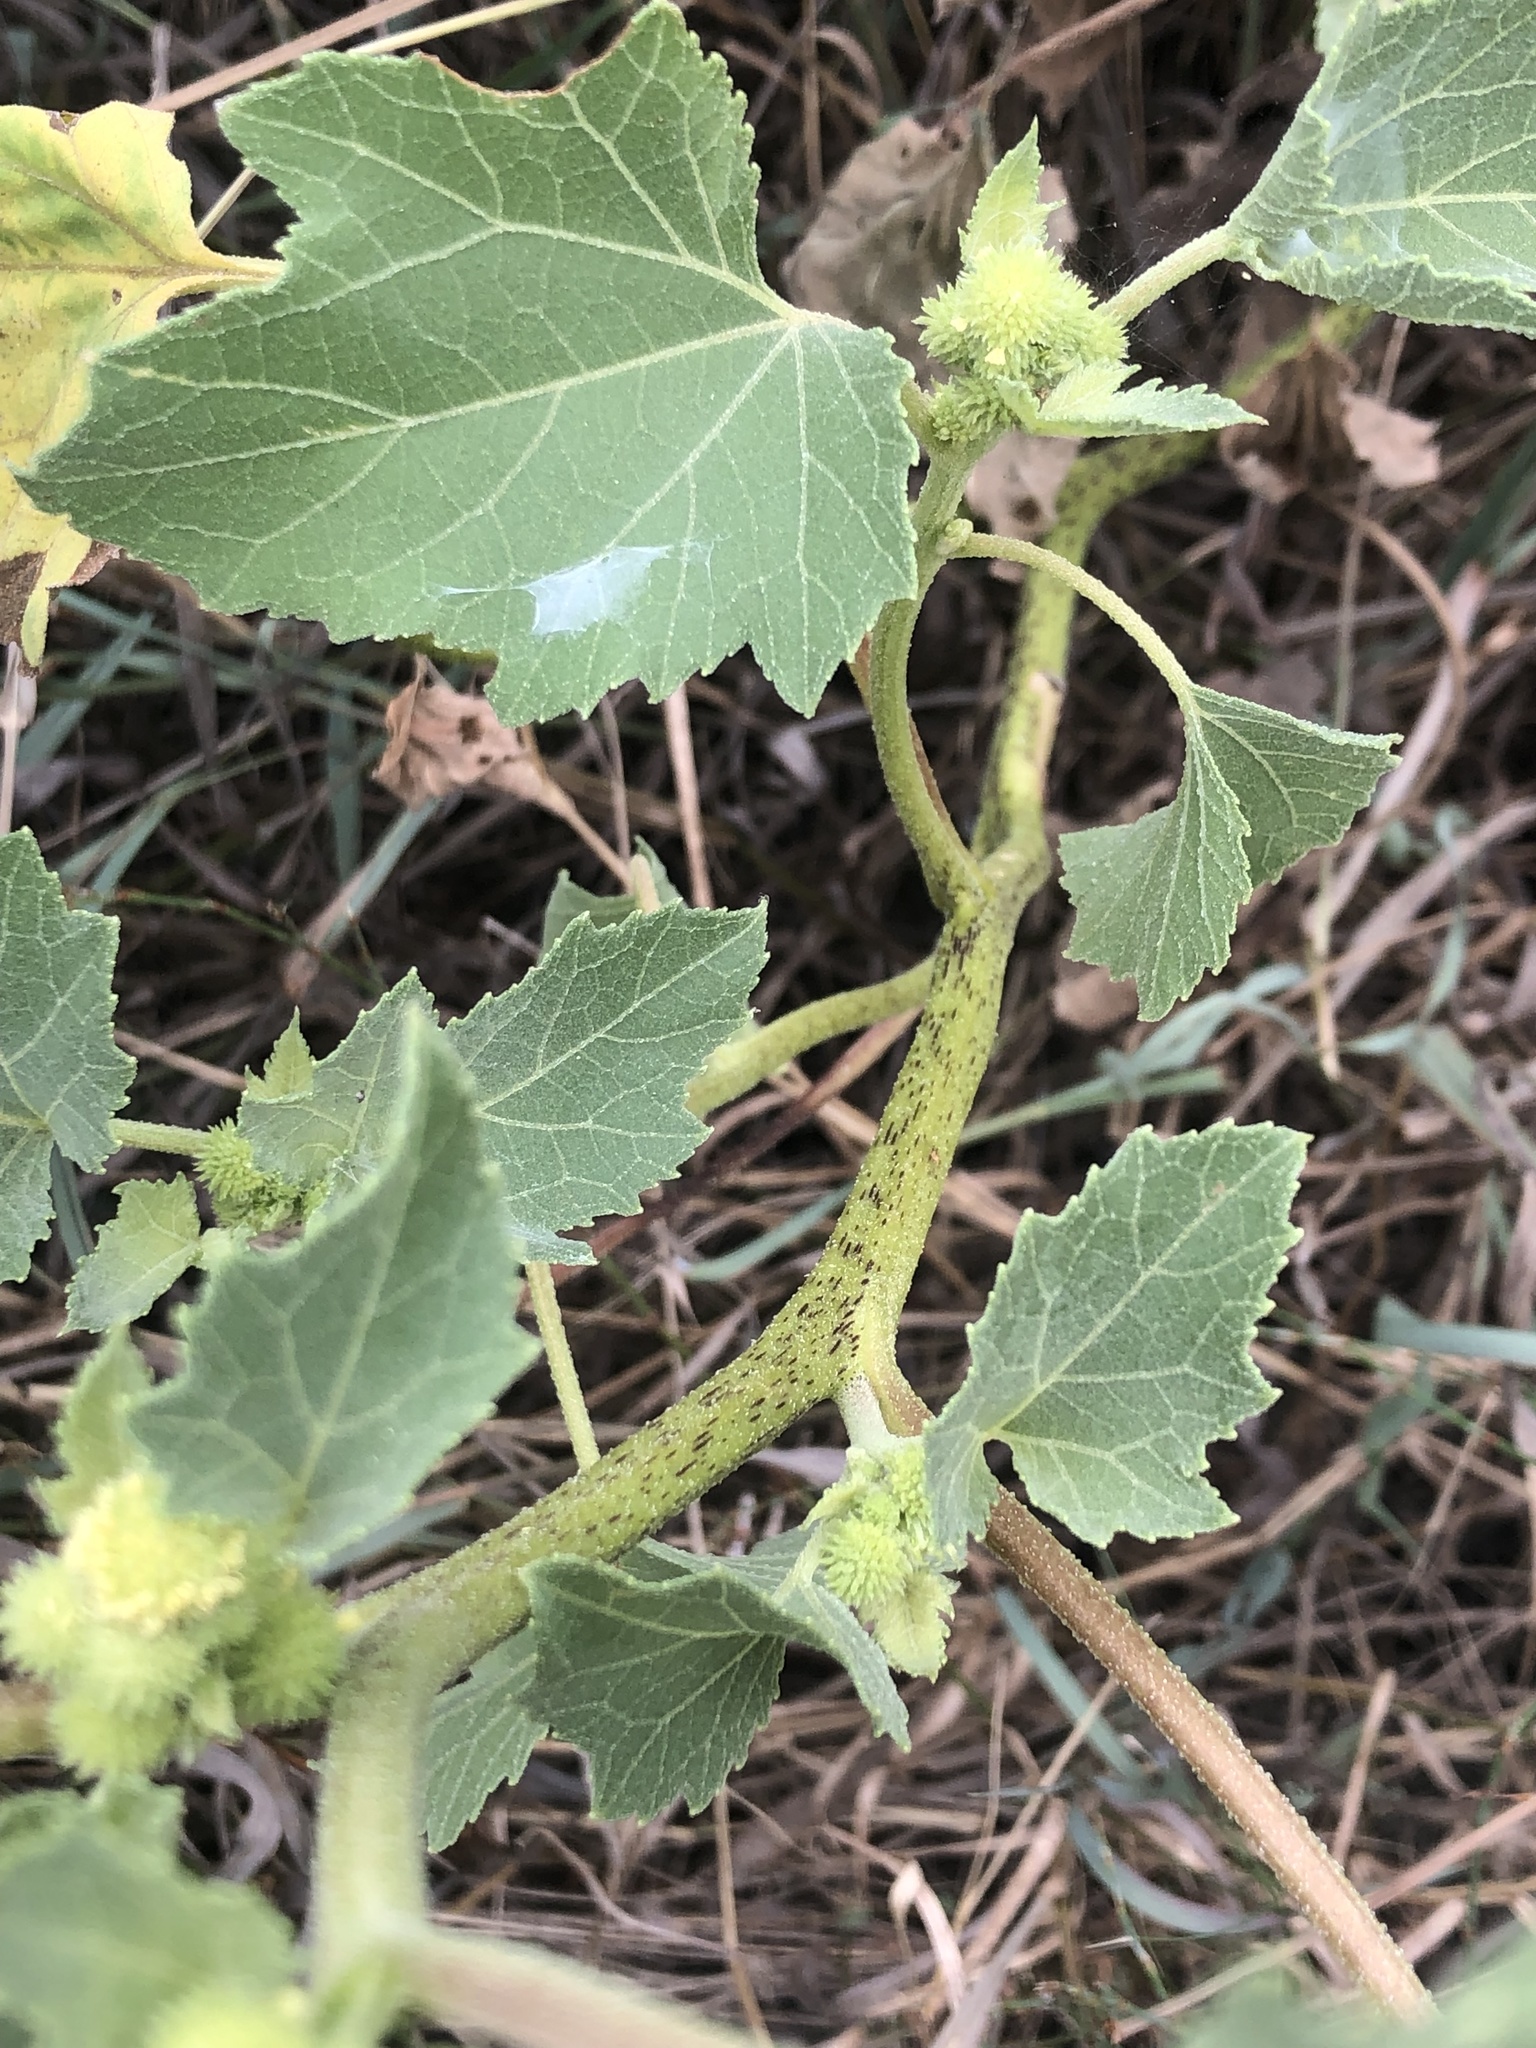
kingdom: Plantae
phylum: Tracheophyta
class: Magnoliopsida
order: Asterales
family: Asteraceae
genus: Xanthium
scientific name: Xanthium strumarium
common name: Rough cocklebur
